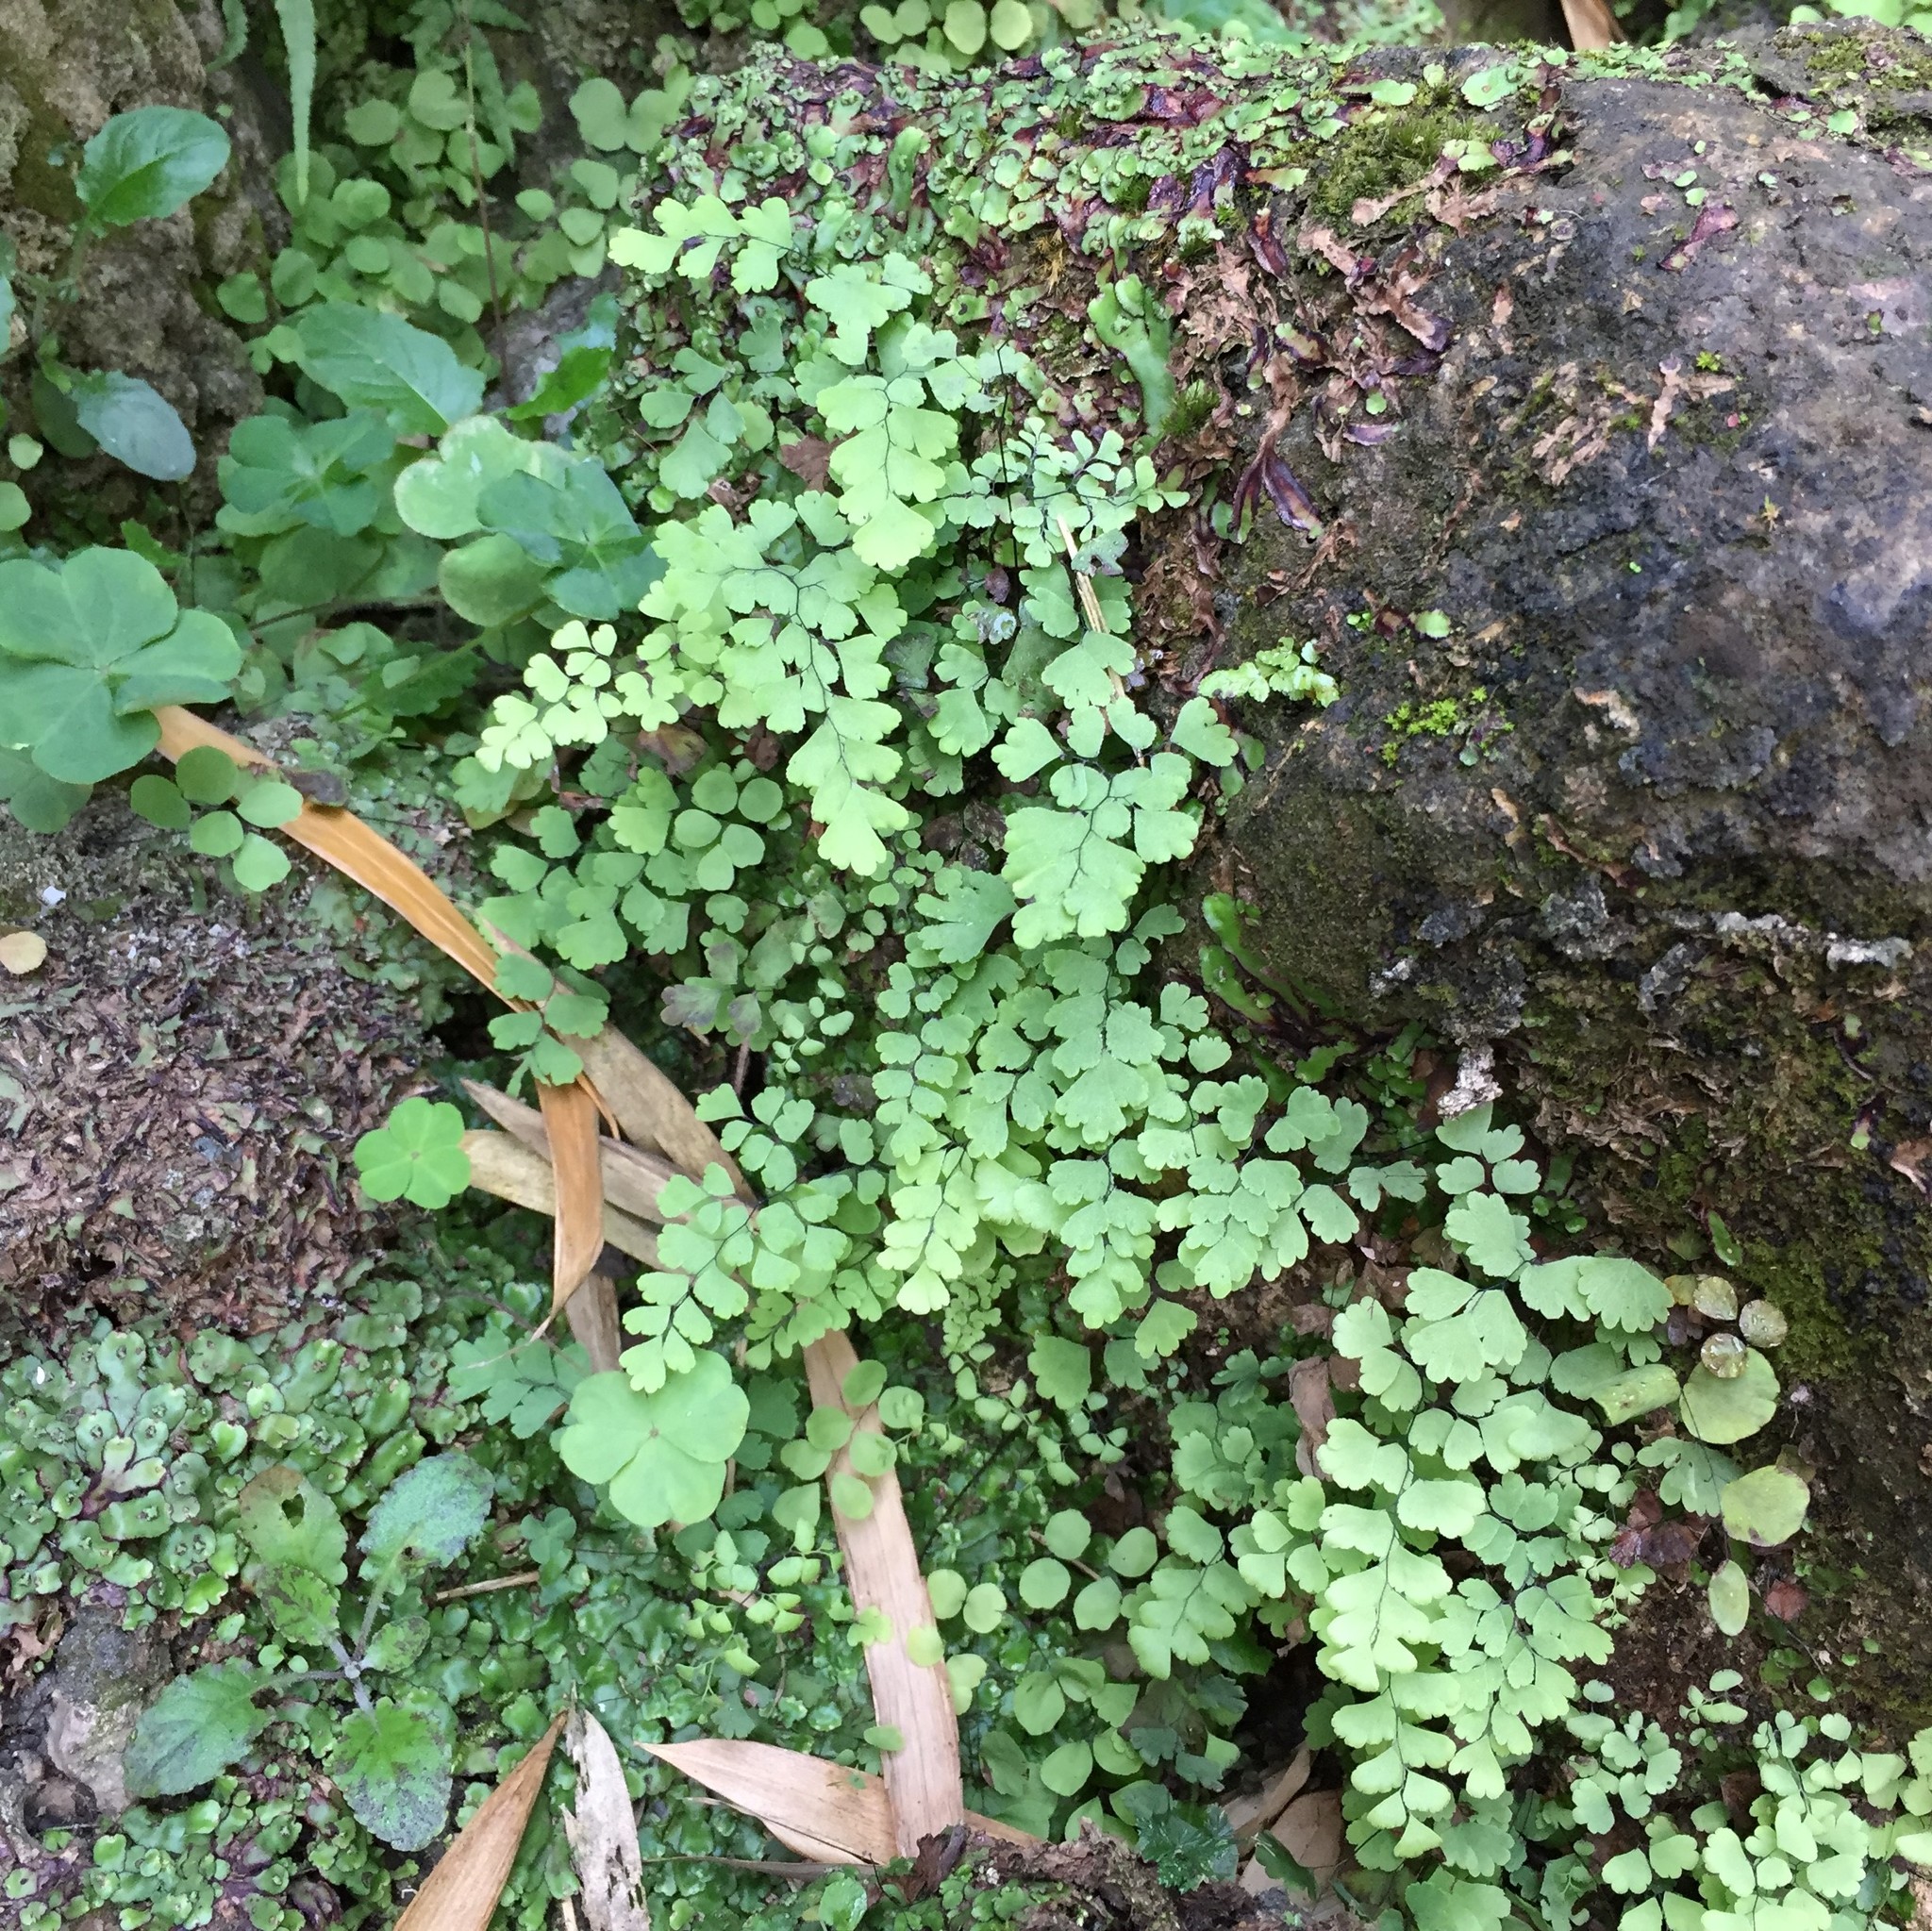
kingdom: Plantae
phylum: Tracheophyta
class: Polypodiopsida
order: Polypodiales
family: Pteridaceae
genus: Adiantum
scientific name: Adiantum capillus-veneris
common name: Maidenhair fern
